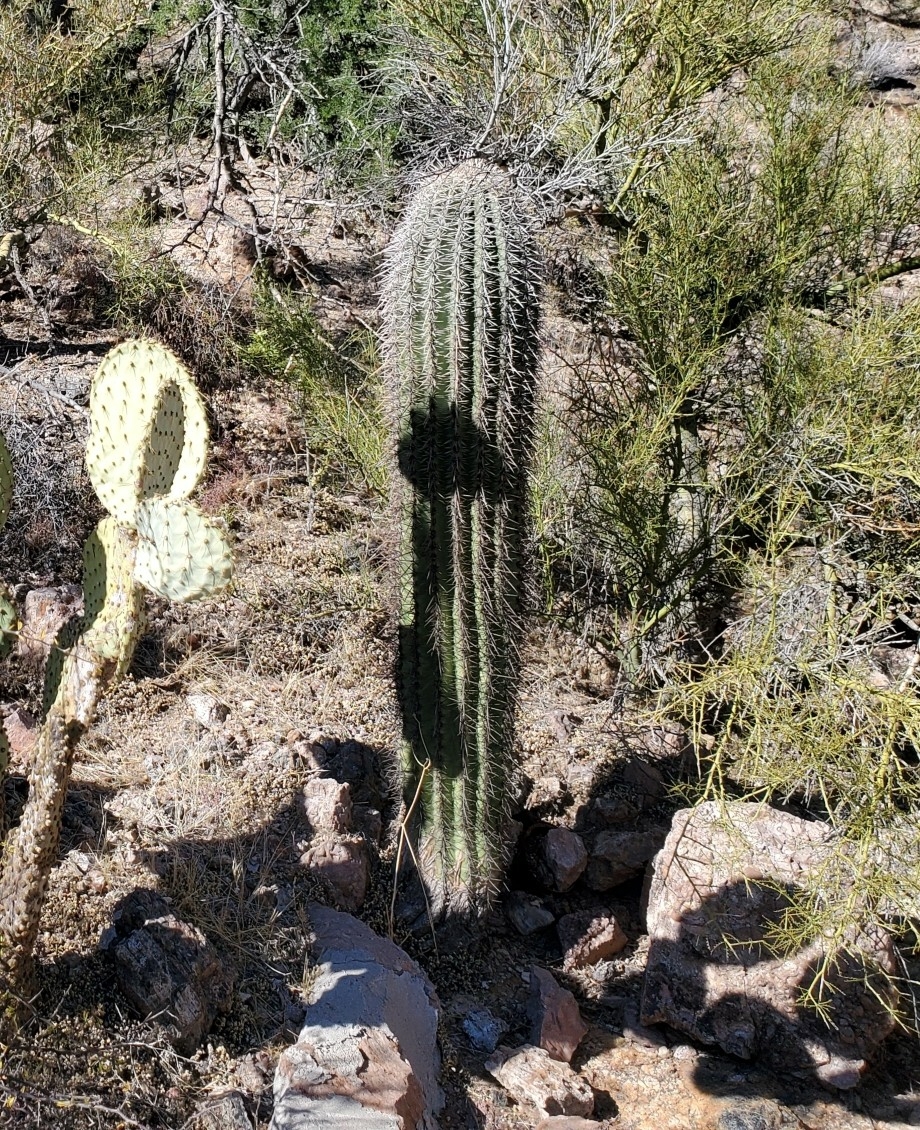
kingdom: Plantae
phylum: Tracheophyta
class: Magnoliopsida
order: Caryophyllales
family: Cactaceae
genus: Carnegiea
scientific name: Carnegiea gigantea
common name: Saguaro
